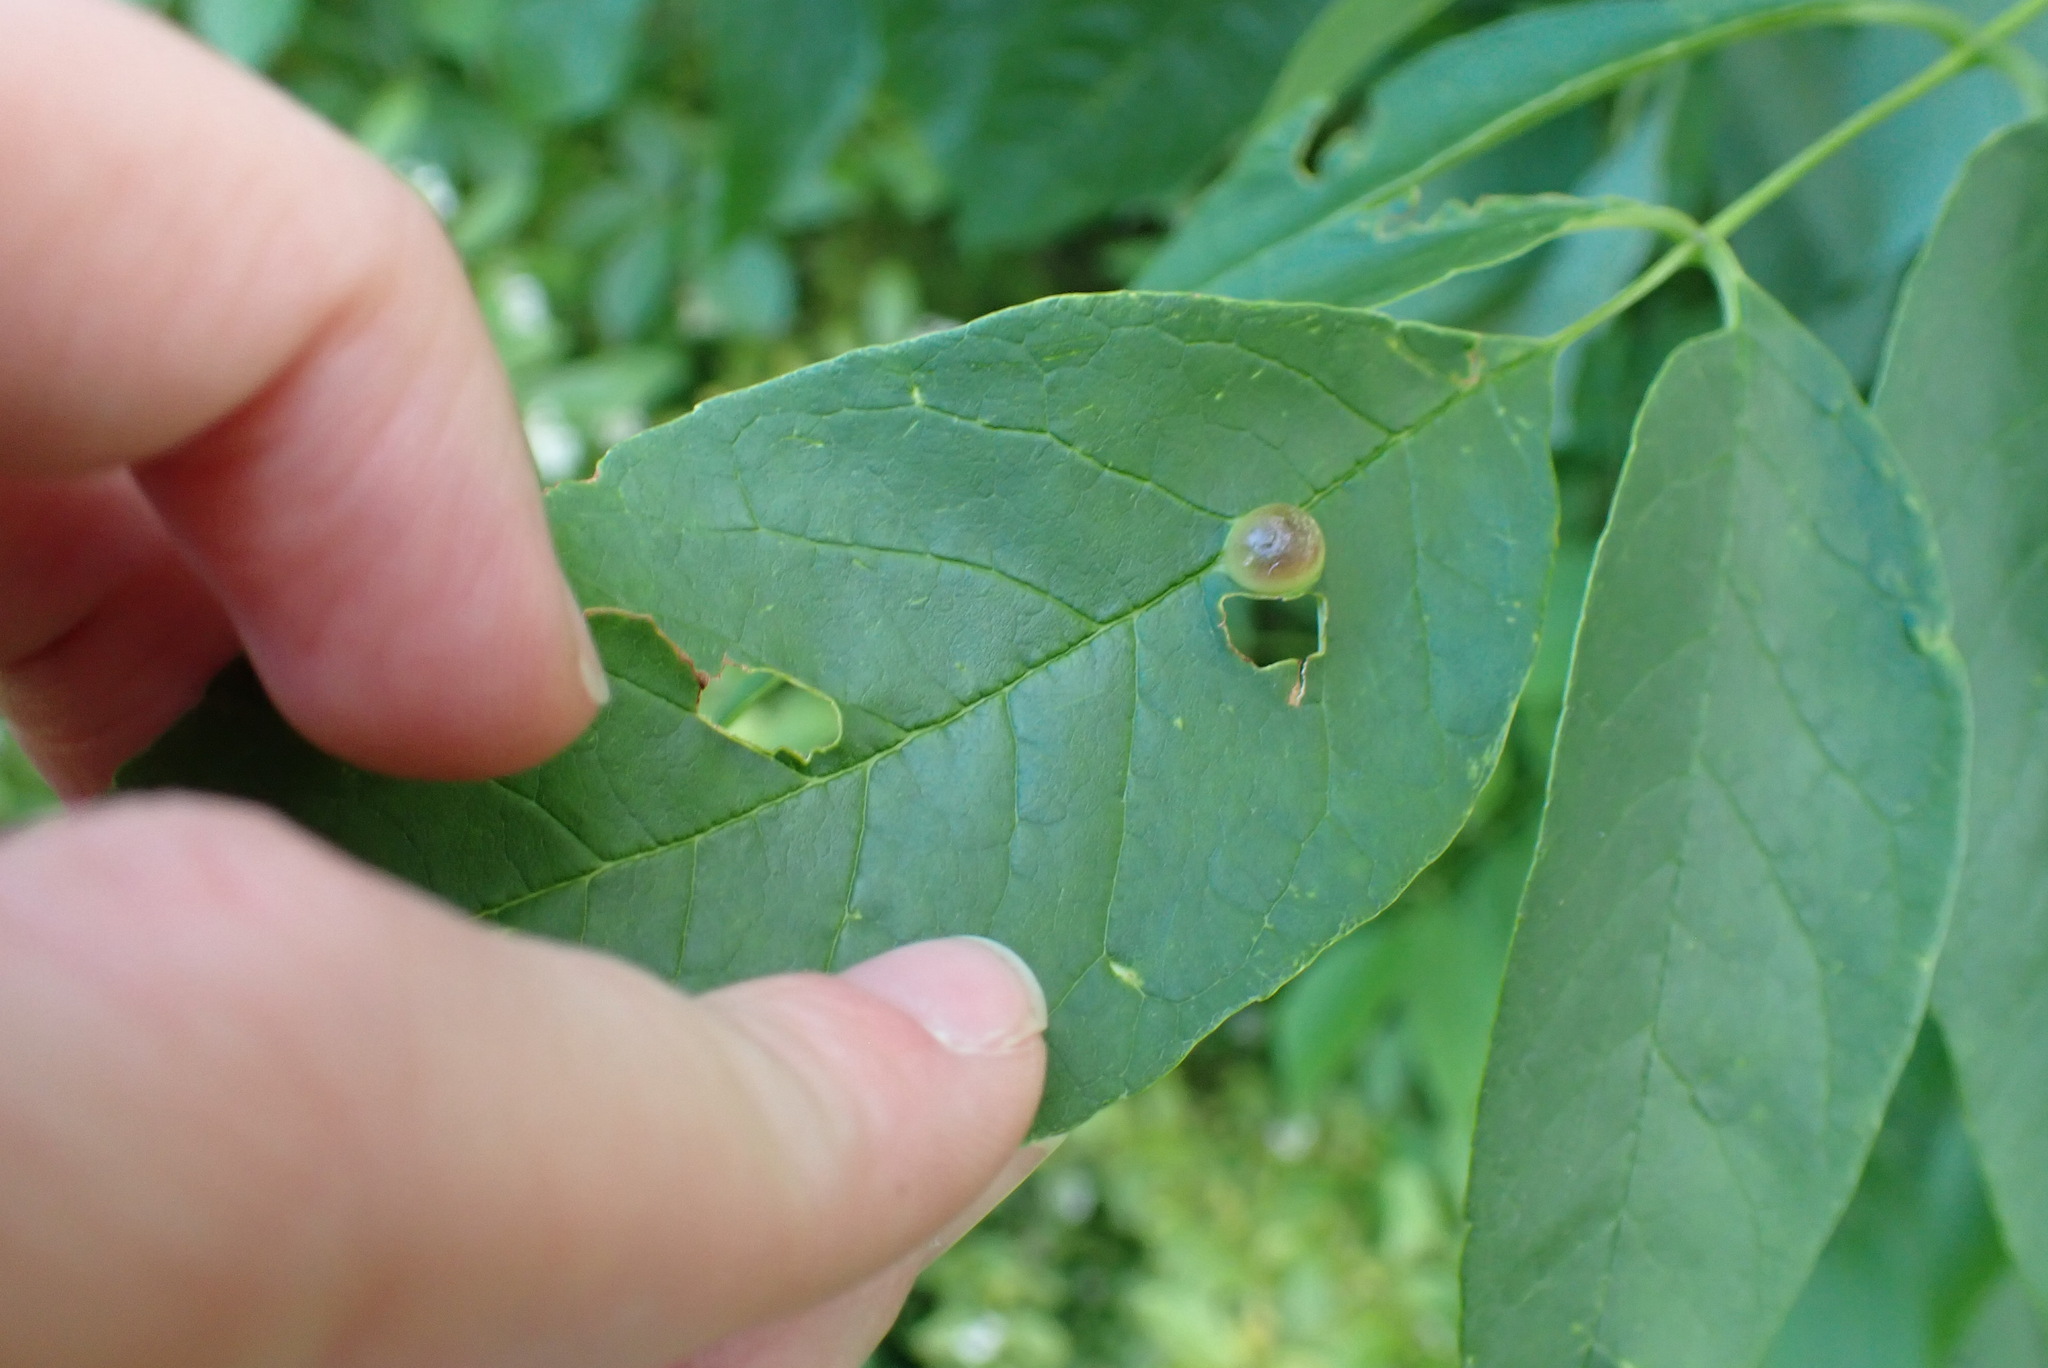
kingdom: Animalia
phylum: Arthropoda
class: Insecta
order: Diptera
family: Cecidomyiidae
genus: Dasineura
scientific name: Dasineura pellex
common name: Ash bullet gall midge
